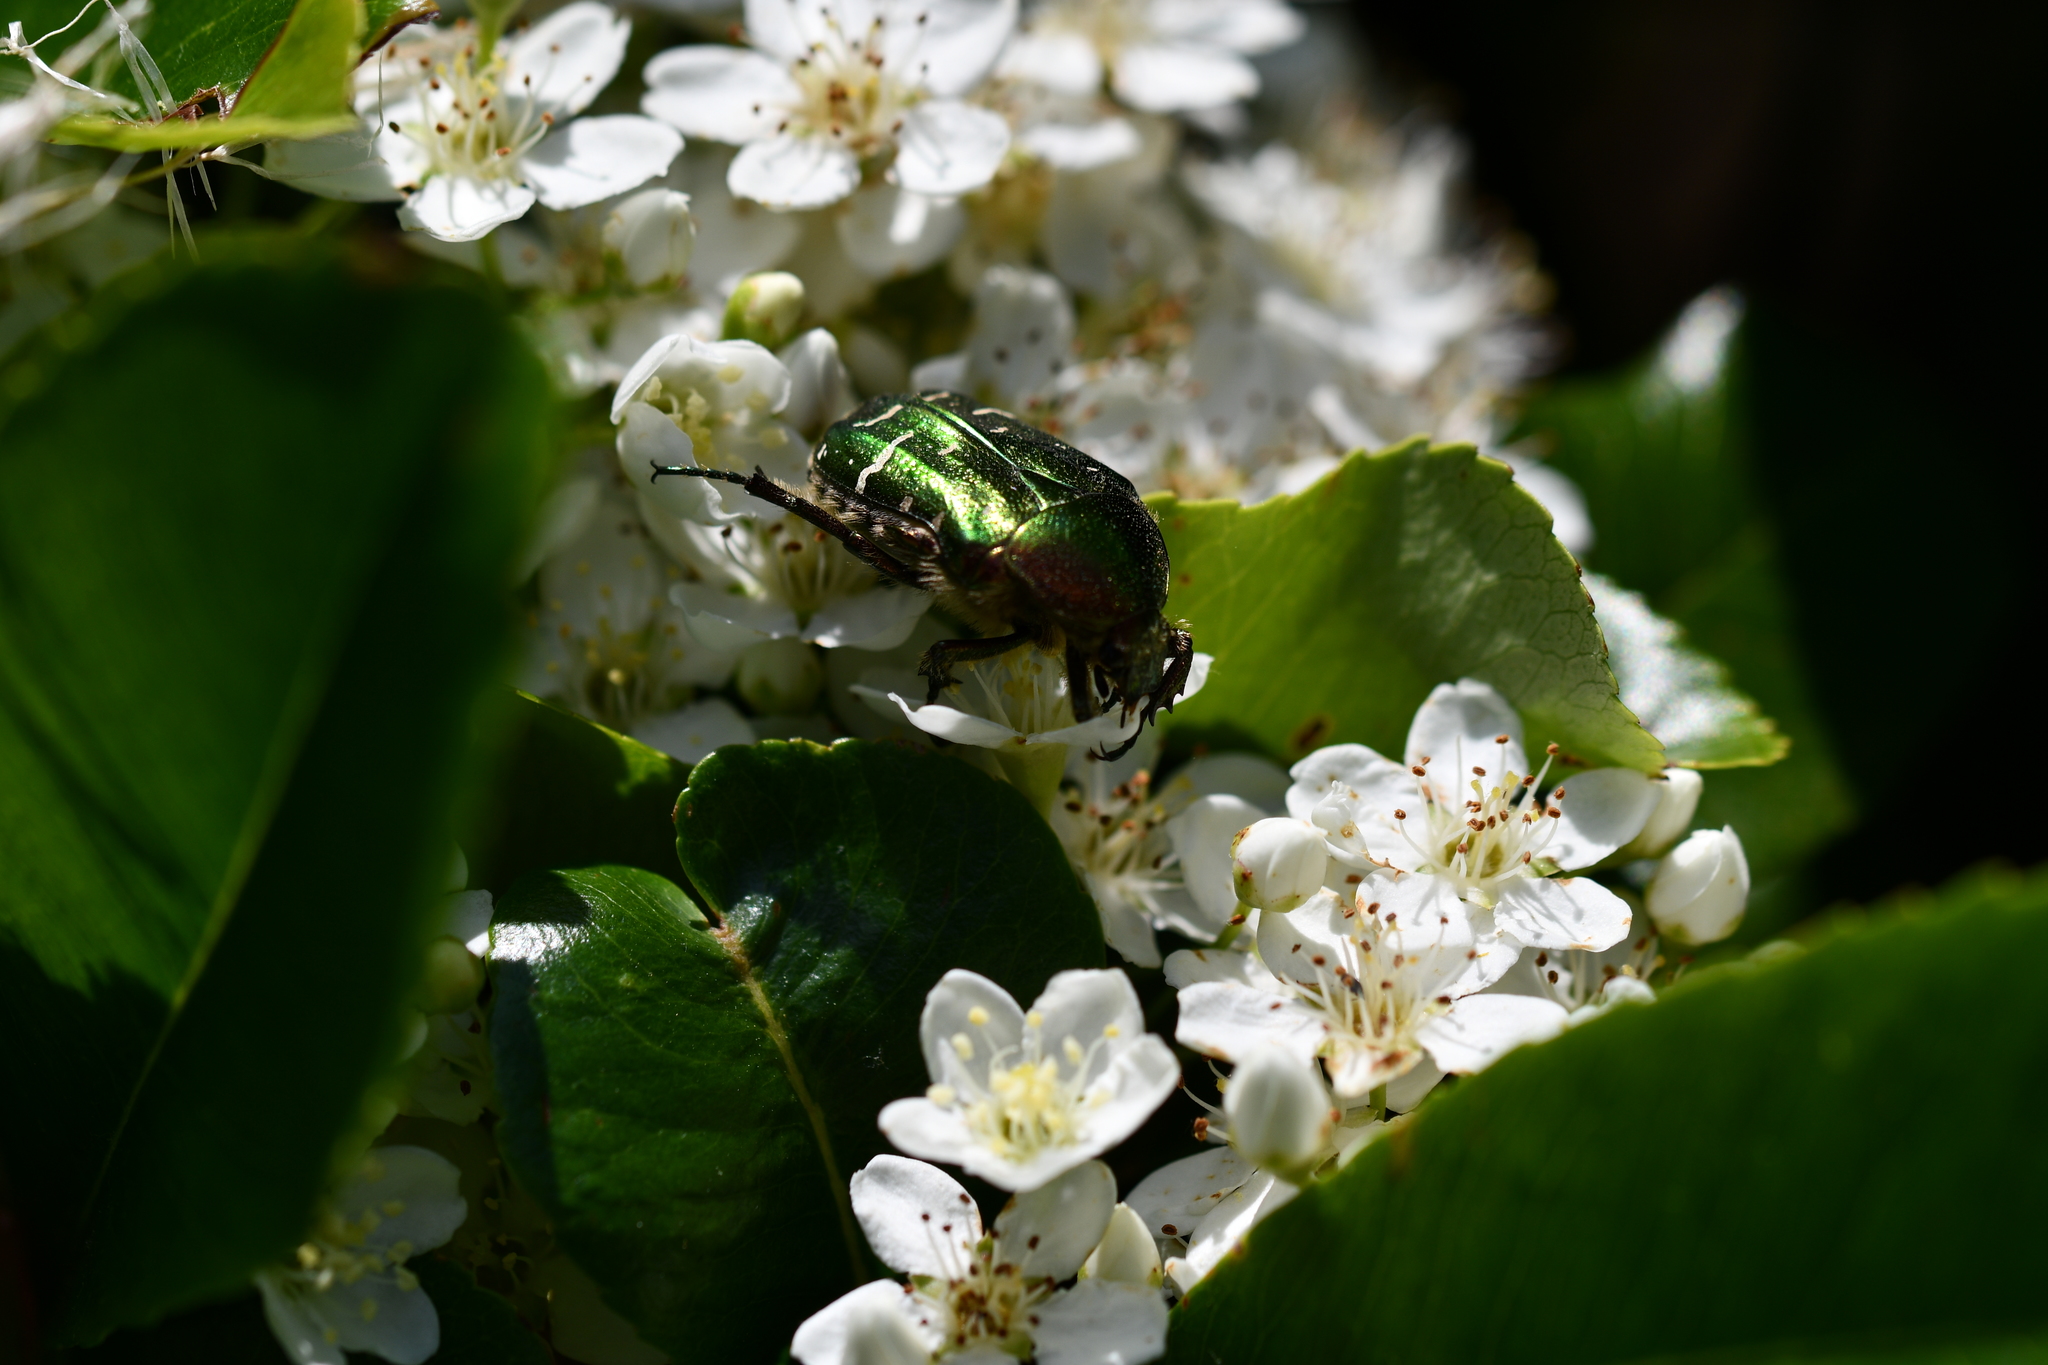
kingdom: Animalia
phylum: Arthropoda
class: Insecta
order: Coleoptera
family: Scarabaeidae
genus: Cetonia
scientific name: Cetonia aurata
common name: Rose chafer
